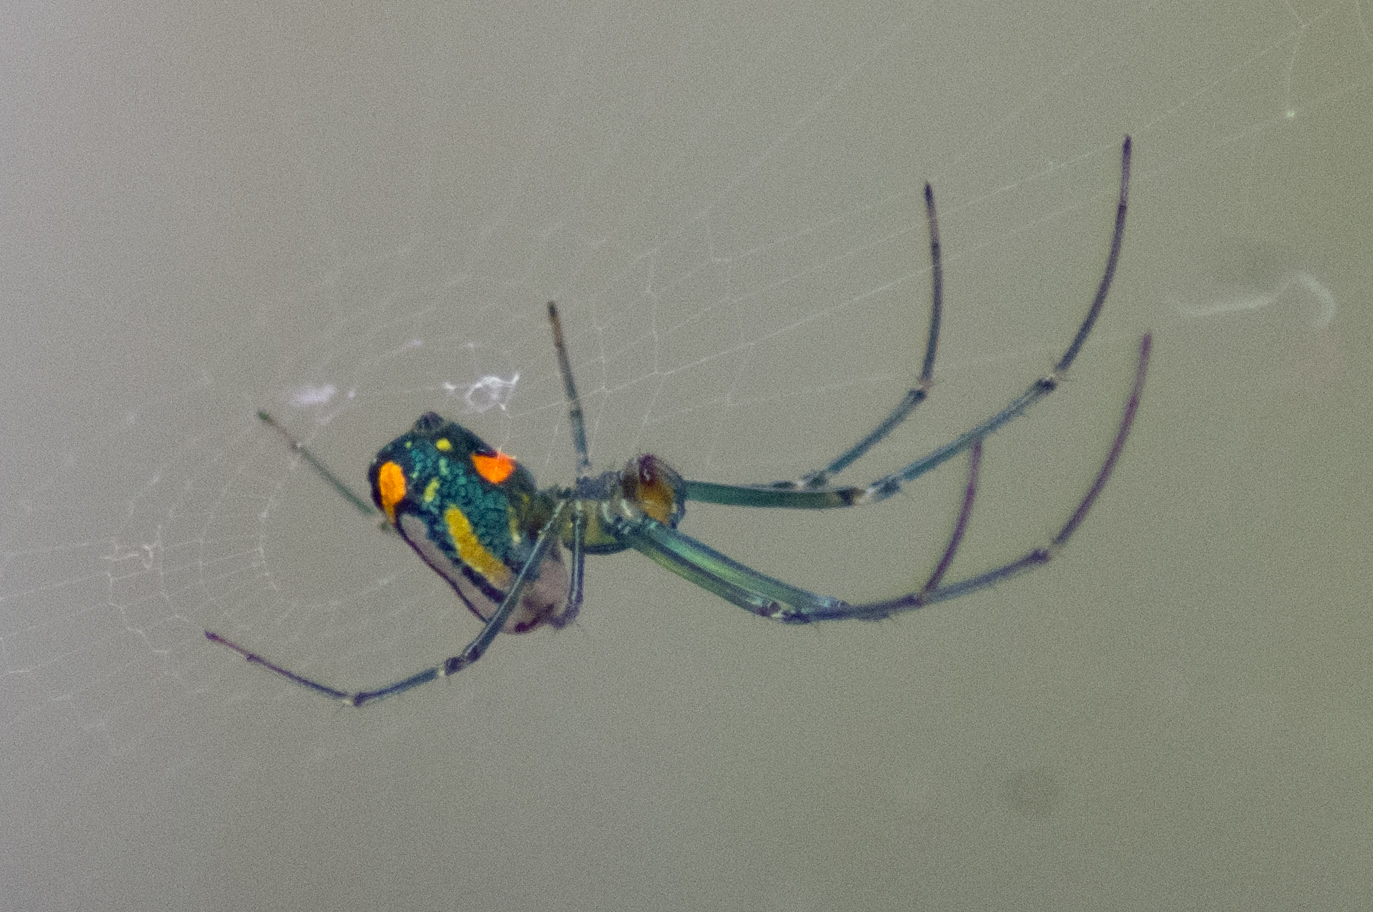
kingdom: Animalia
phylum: Arthropoda
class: Arachnida
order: Araneae
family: Tetragnathidae
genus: Leucauge
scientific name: Leucauge argyrobapta
